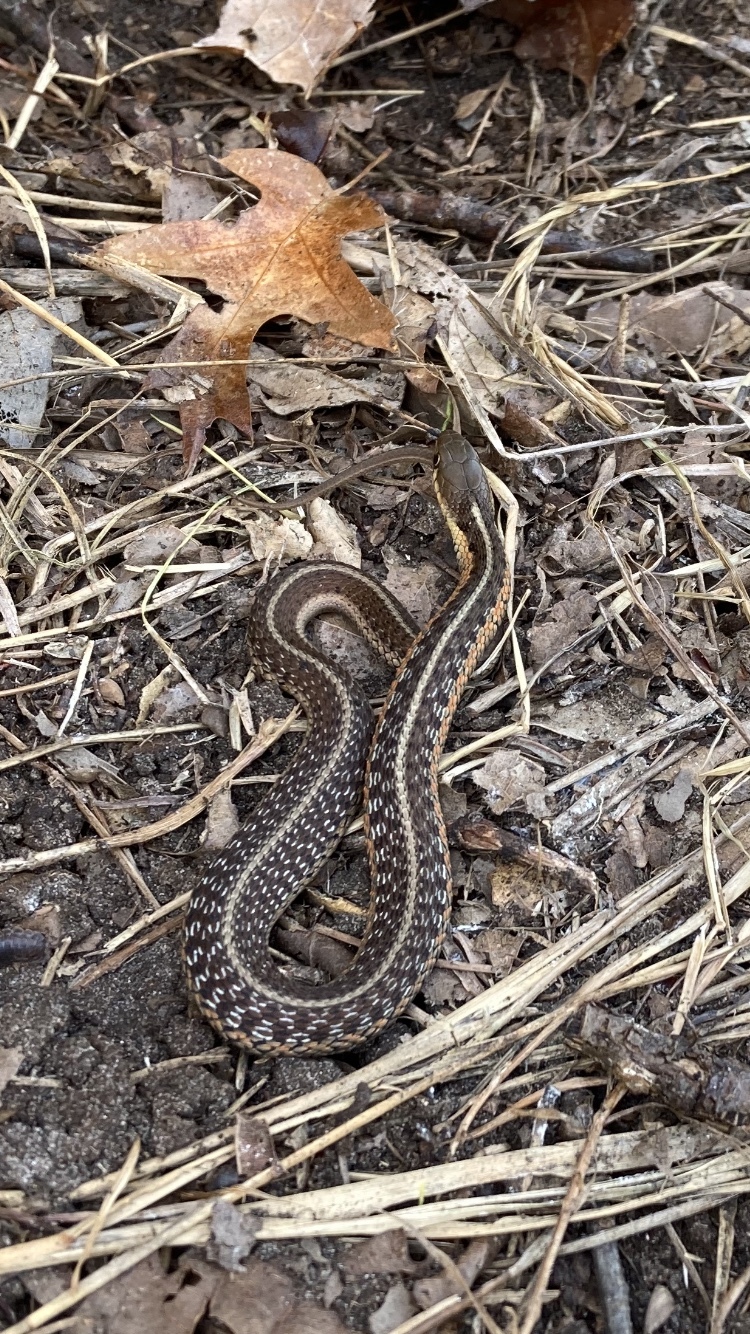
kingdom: Animalia
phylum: Chordata
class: Squamata
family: Colubridae
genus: Thamnophis
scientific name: Thamnophis sirtalis
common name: Common garter snake
